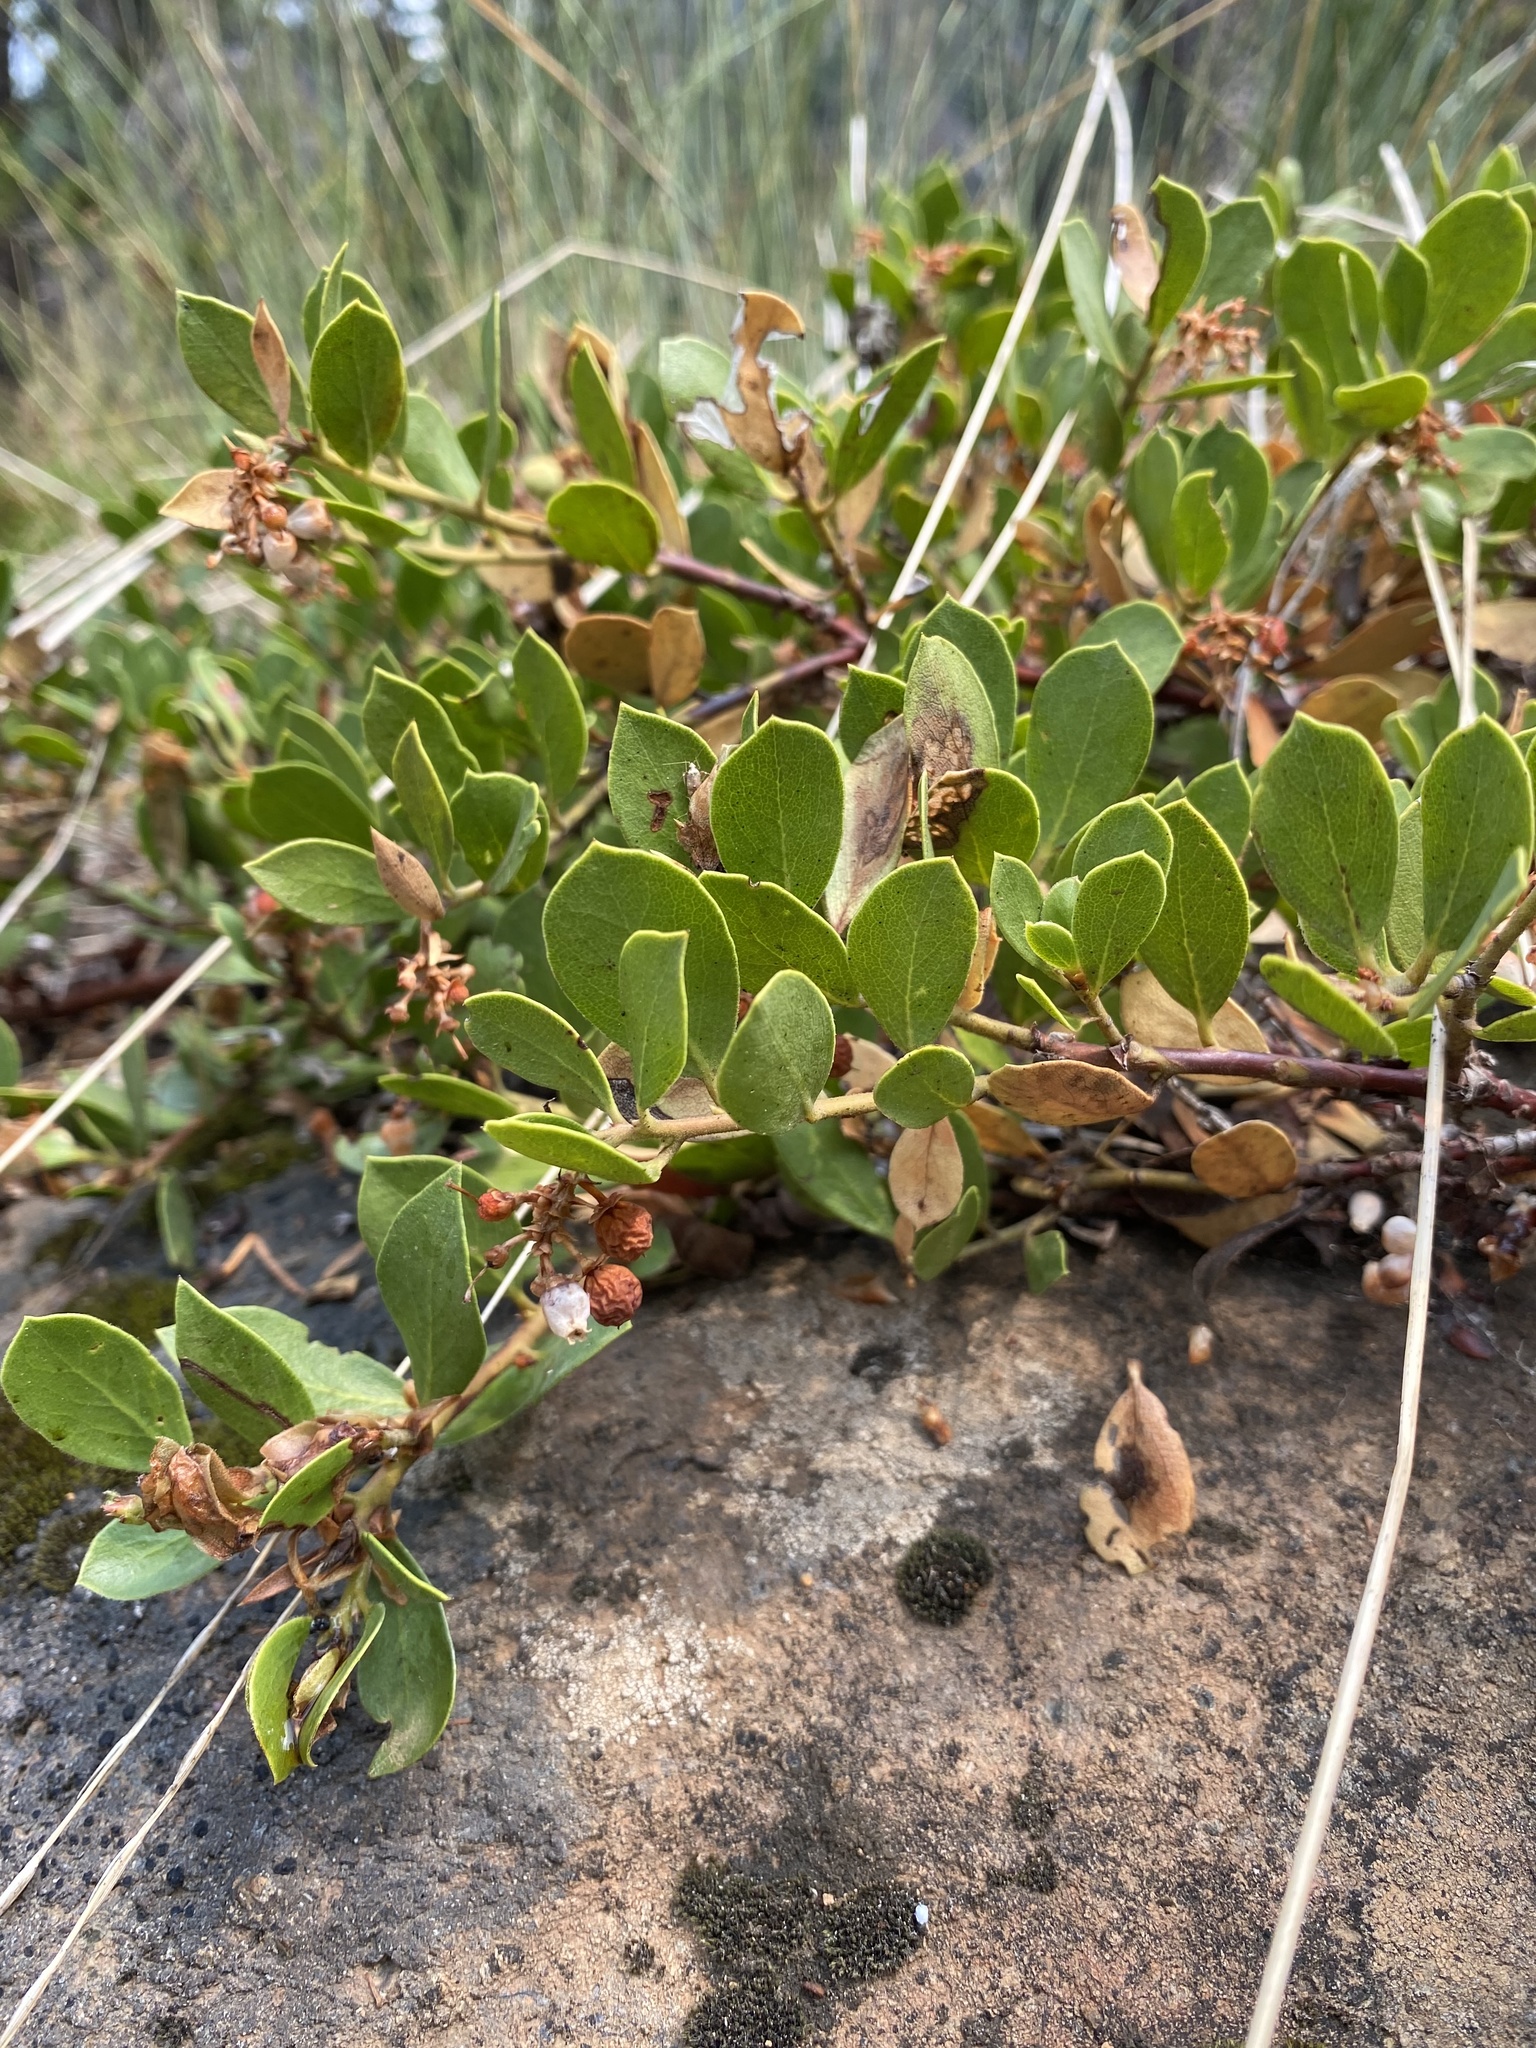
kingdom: Plantae
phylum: Tracheophyta
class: Magnoliopsida
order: Ericales
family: Ericaceae
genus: Arctostaphylos
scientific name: Arctostaphylos nevadensis
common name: Pinemat manzanita
